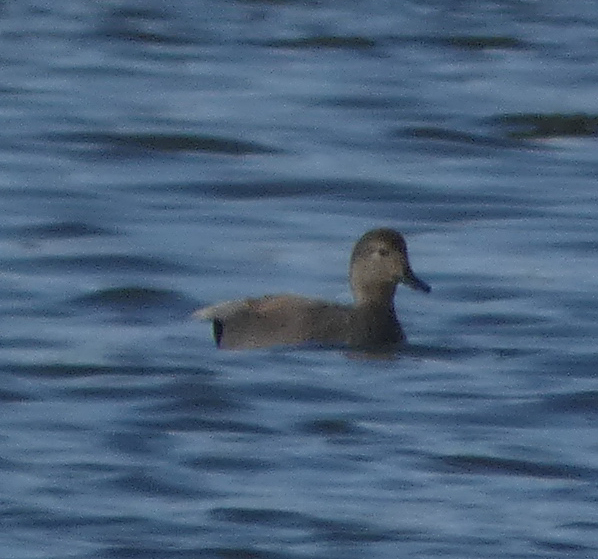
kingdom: Animalia
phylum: Chordata
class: Aves
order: Anseriformes
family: Anatidae
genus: Mareca
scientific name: Mareca strepera
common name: Gadwall
